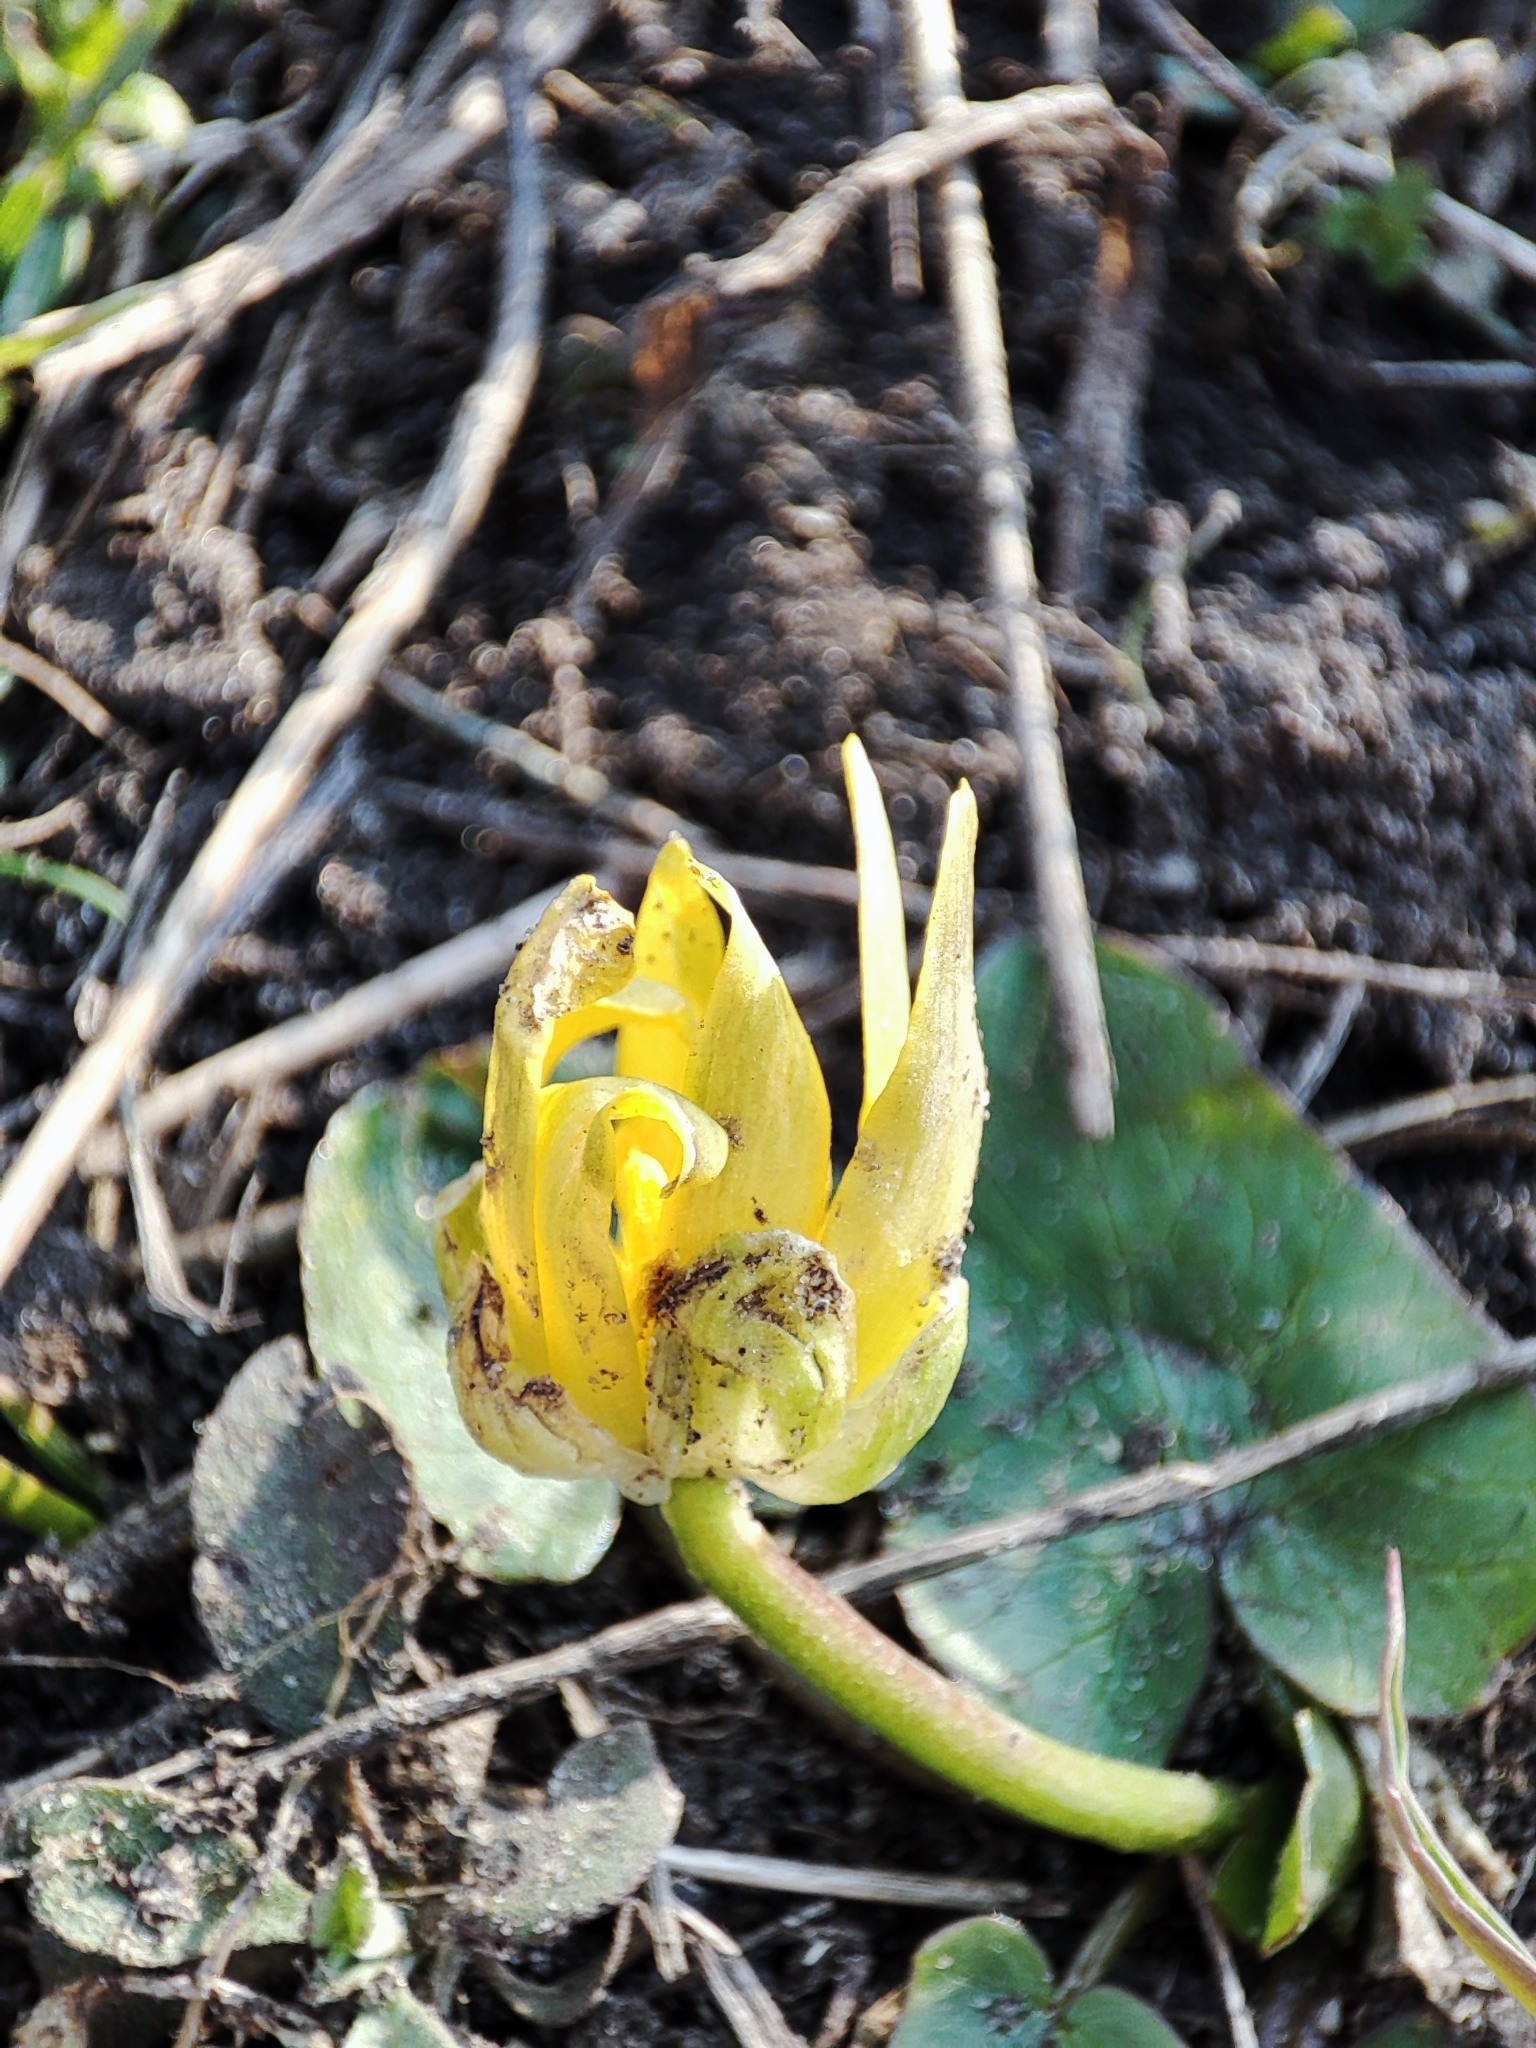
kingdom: Plantae
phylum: Tracheophyta
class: Magnoliopsida
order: Ranunculales
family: Ranunculaceae
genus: Ficaria
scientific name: Ficaria verna
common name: Lesser celandine
